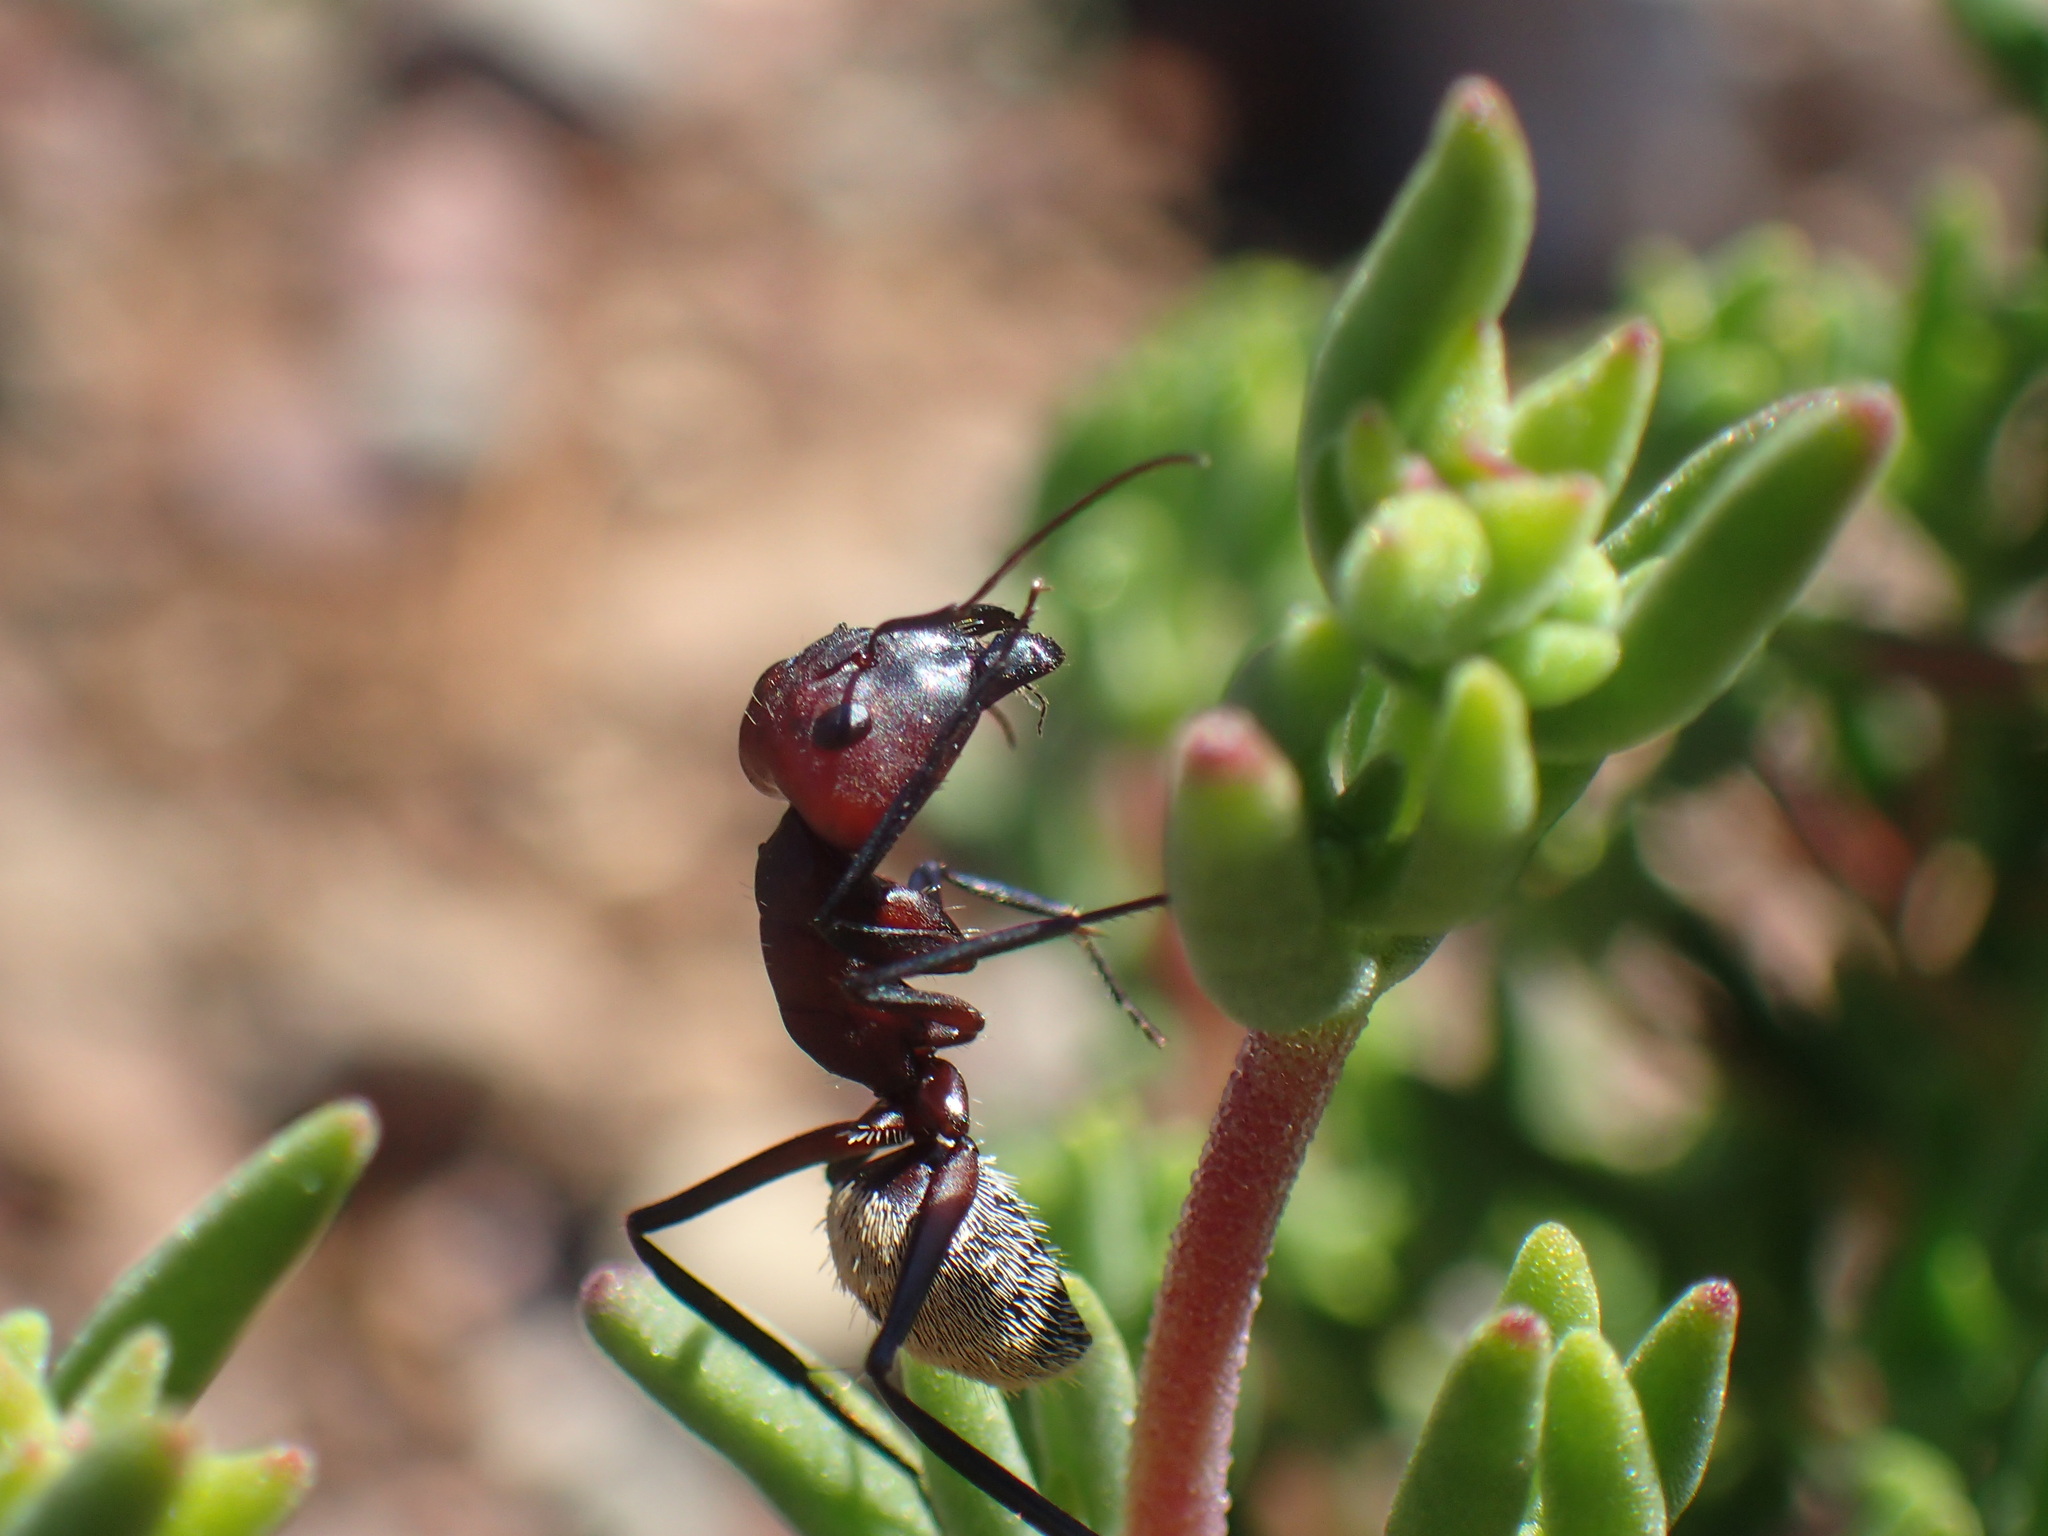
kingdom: Animalia
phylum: Arthropoda
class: Insecta
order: Hymenoptera
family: Formicidae
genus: Camponotus
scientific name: Camponotus storeatus
